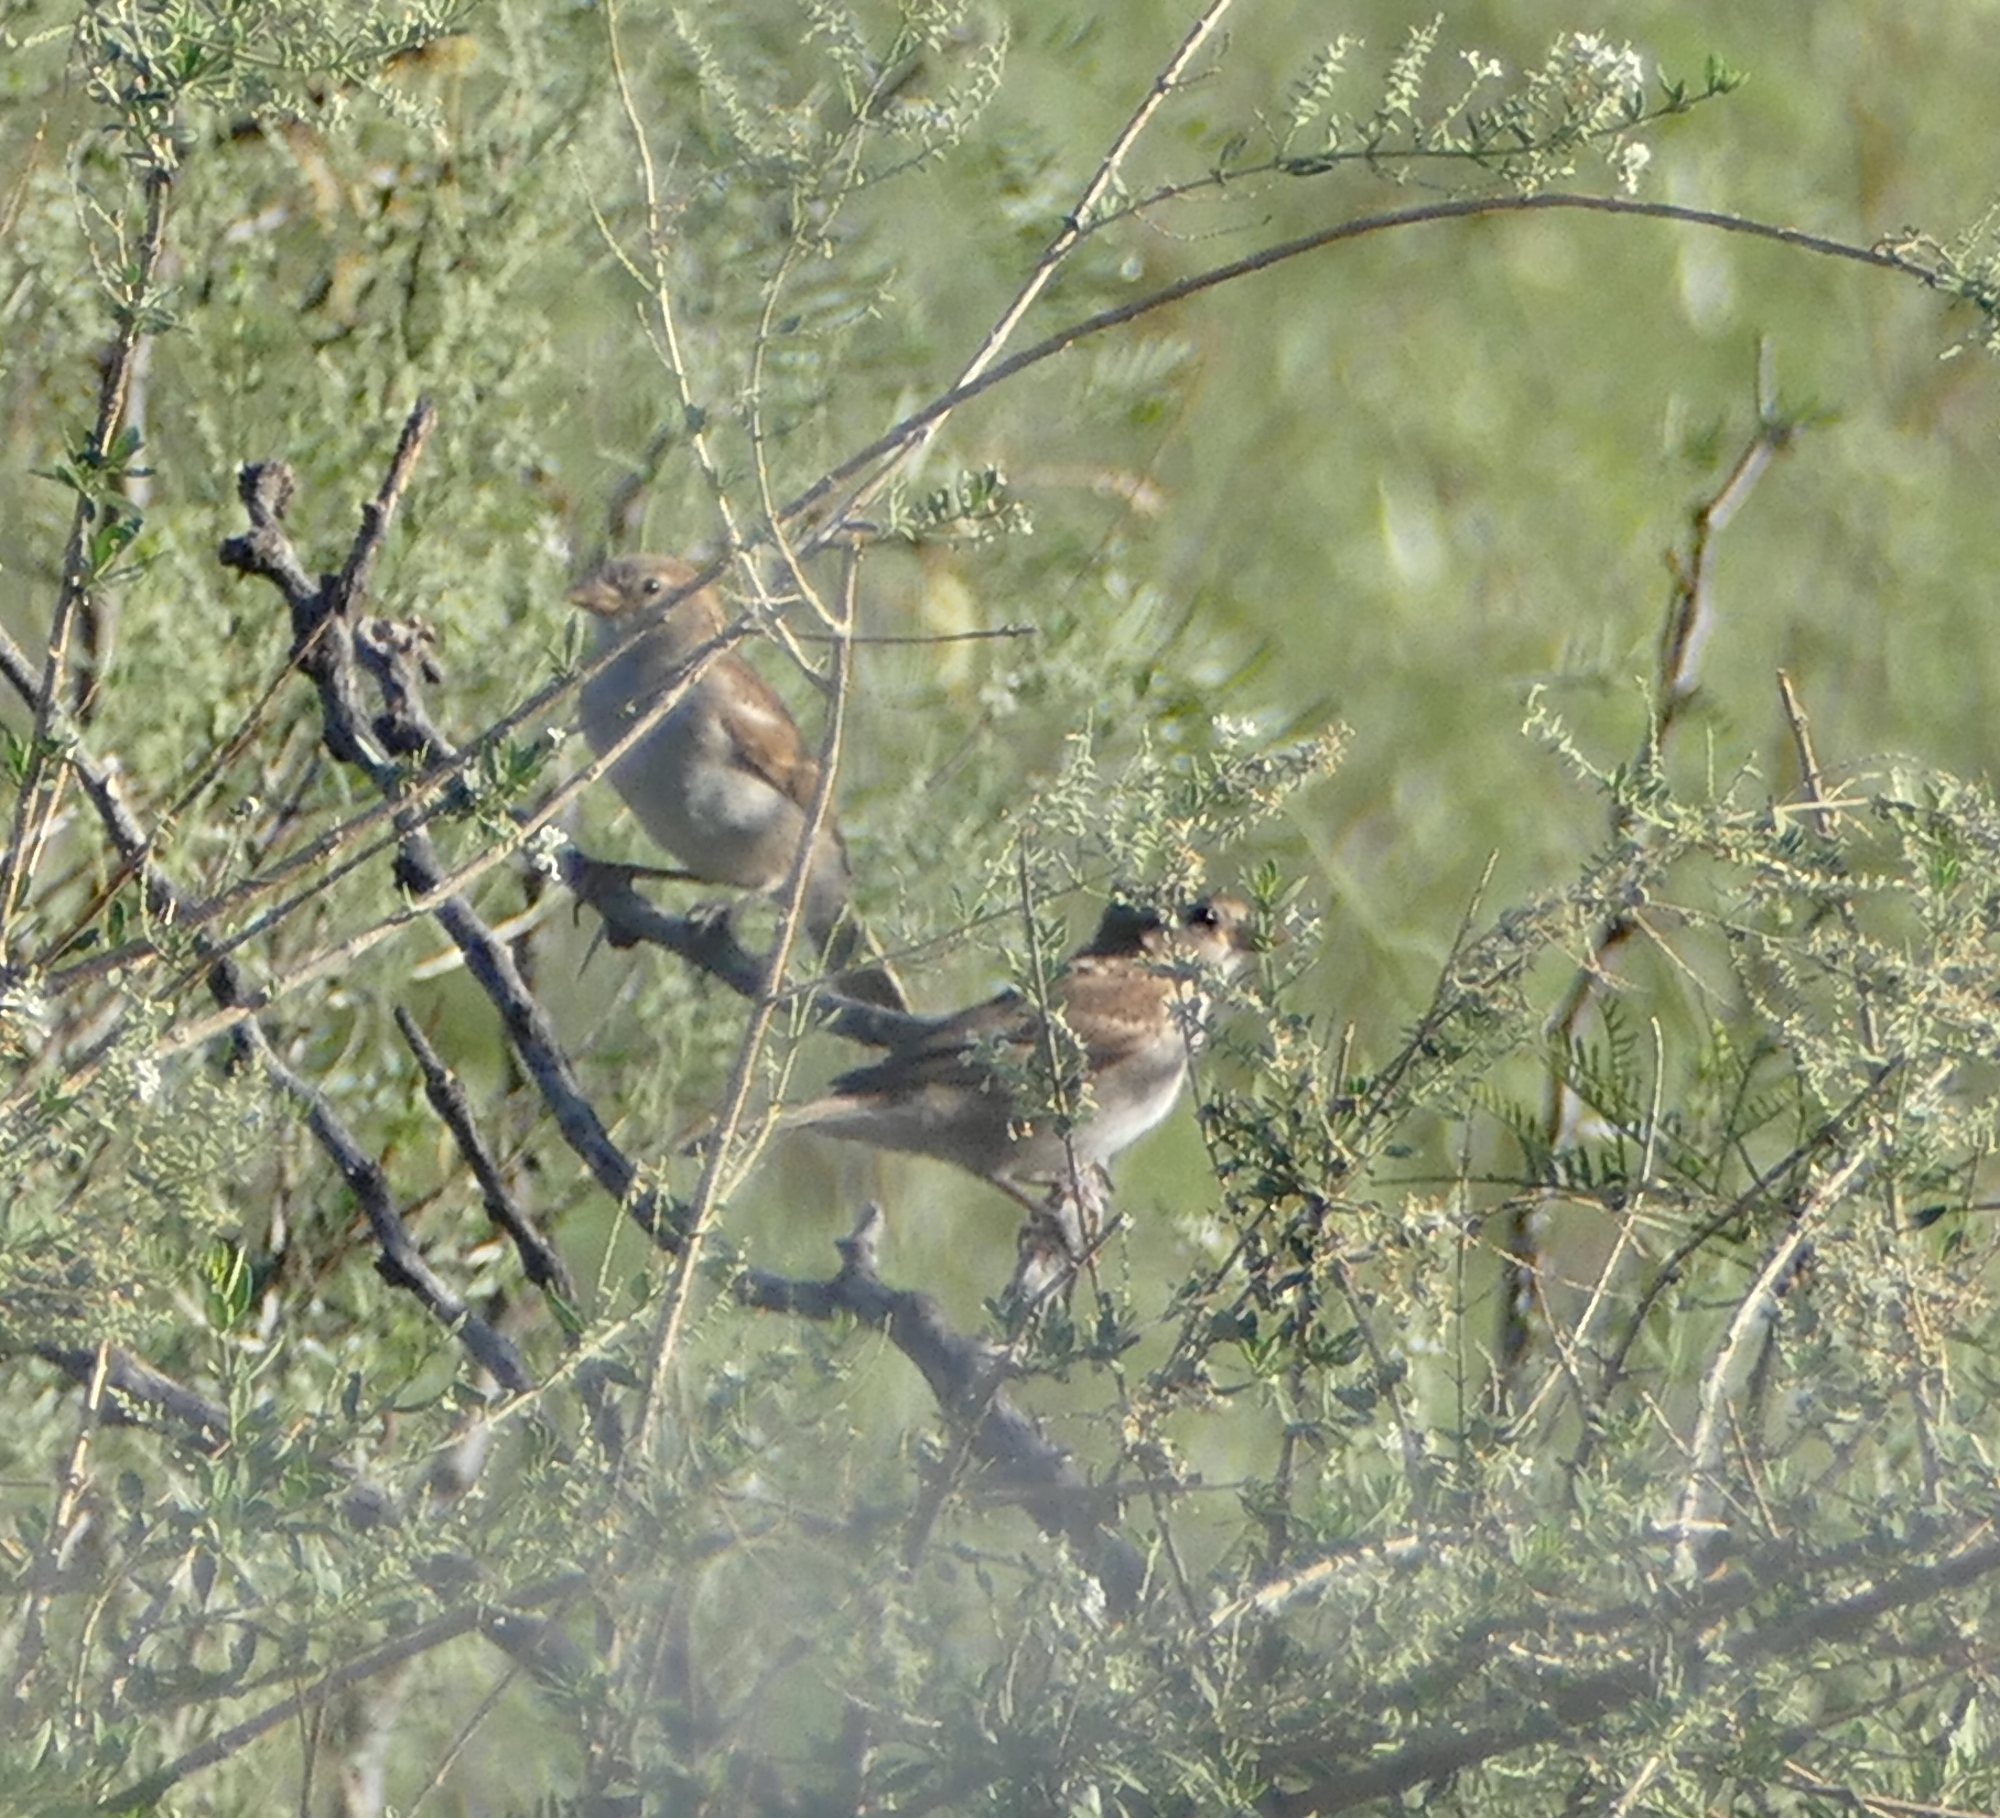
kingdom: Animalia
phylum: Chordata
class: Aves
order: Passeriformes
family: Passeridae
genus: Passer
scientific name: Passer domesticus
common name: House sparrow
